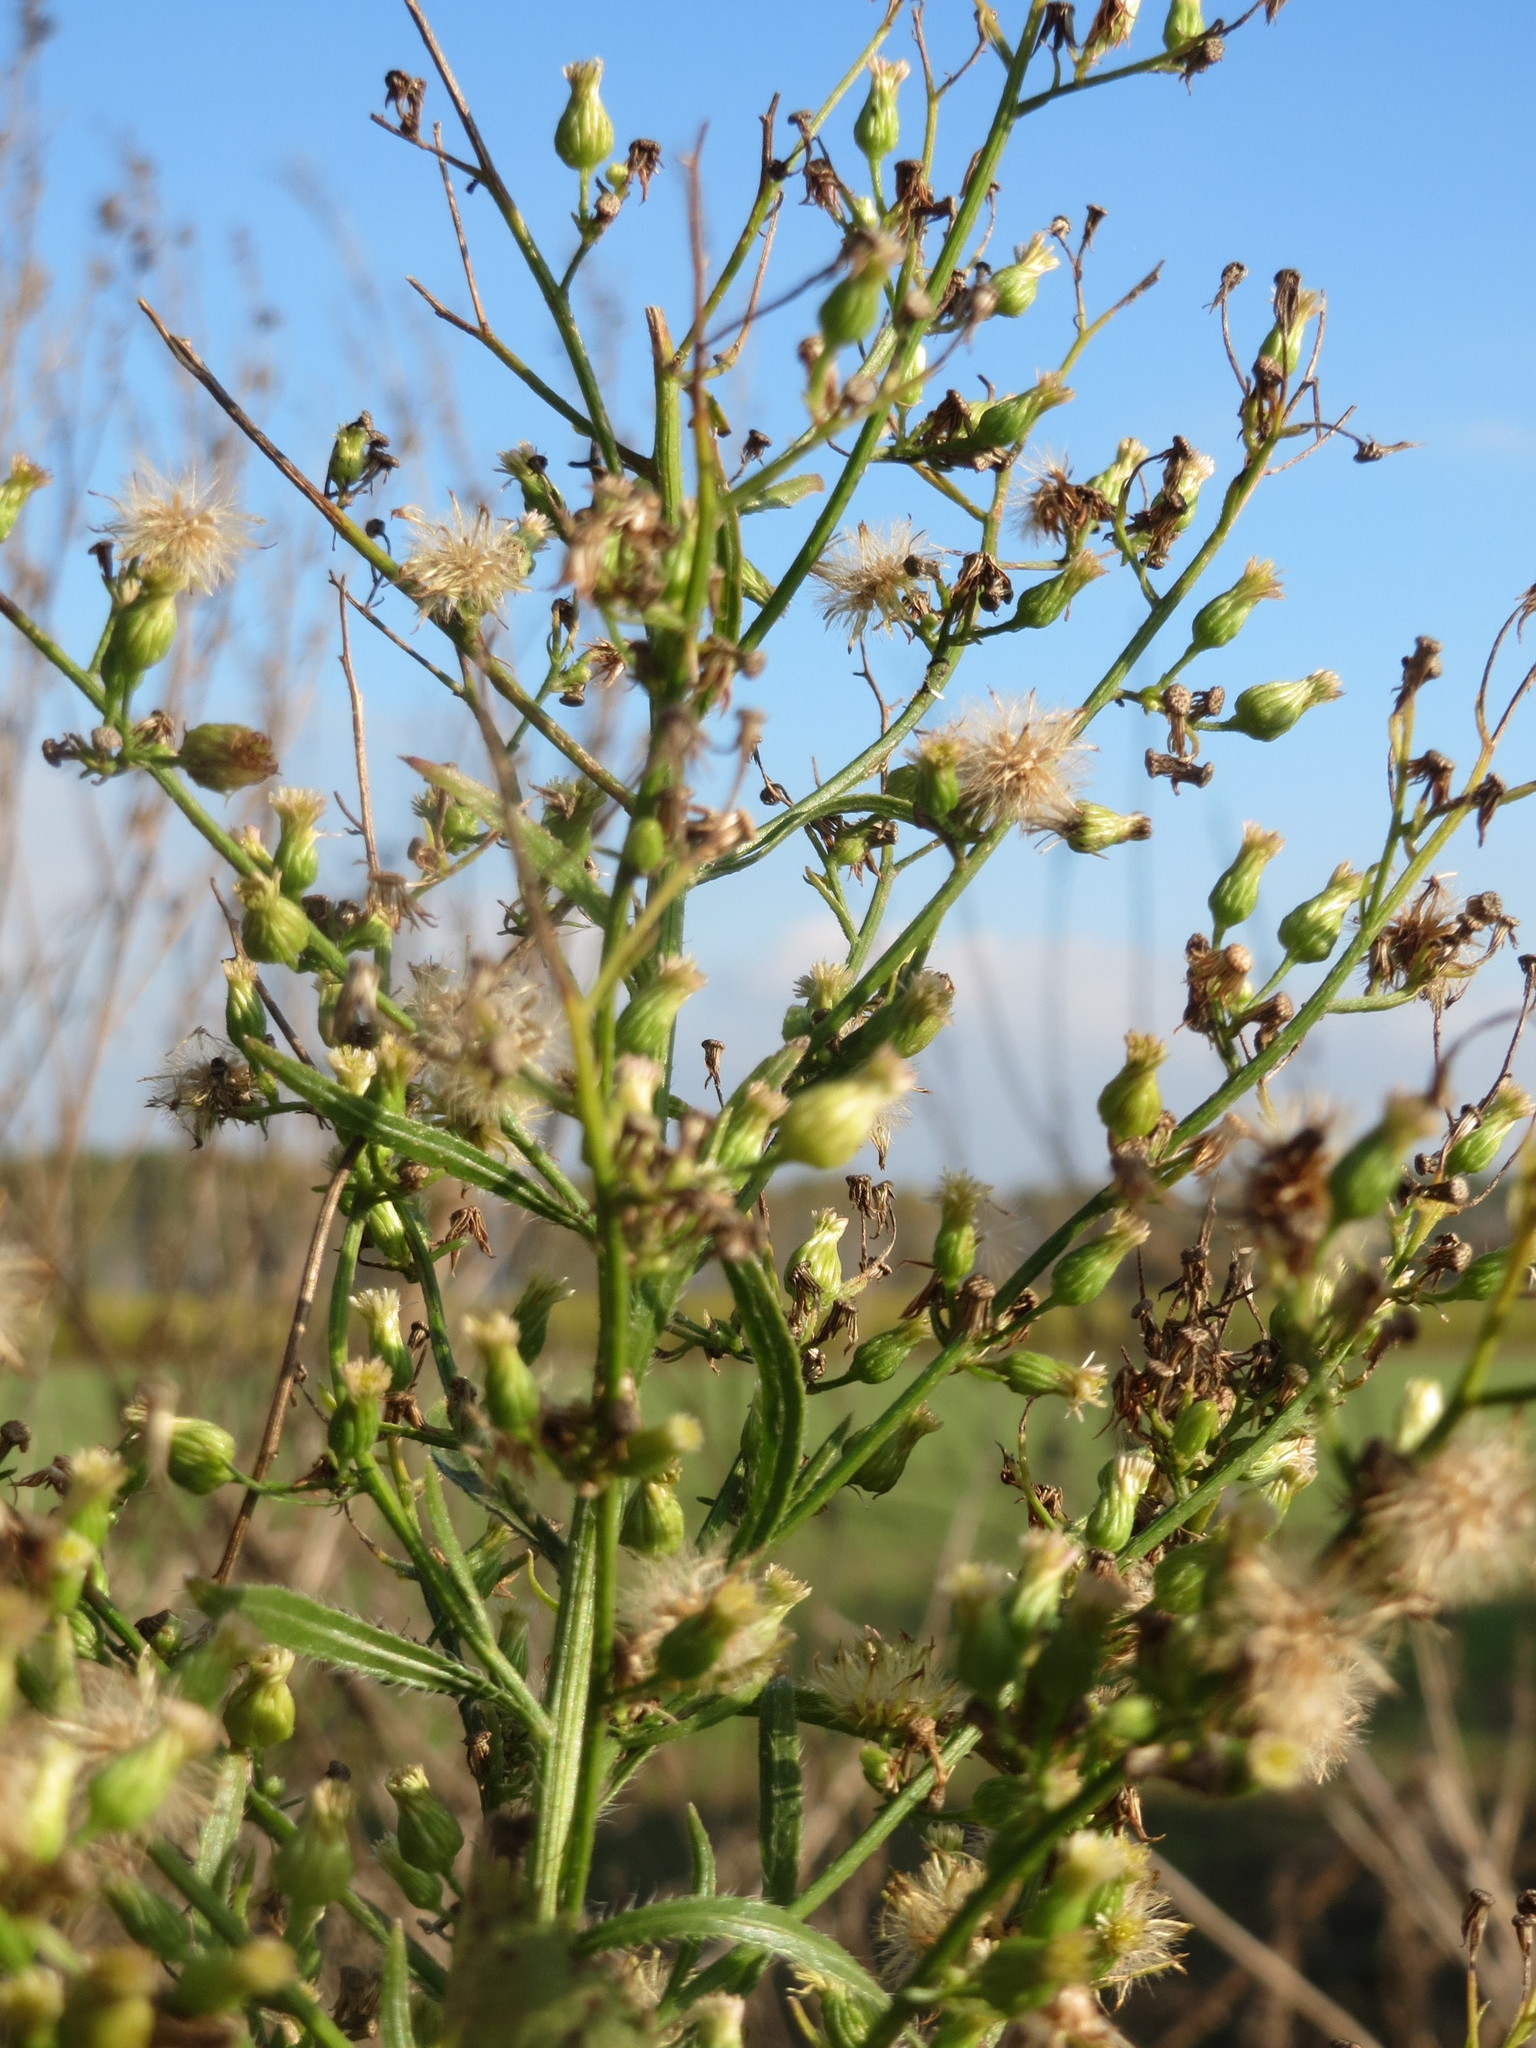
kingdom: Plantae
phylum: Tracheophyta
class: Magnoliopsida
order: Asterales
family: Asteraceae
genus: Erigeron
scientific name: Erigeron canadensis
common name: Canadian fleabane
